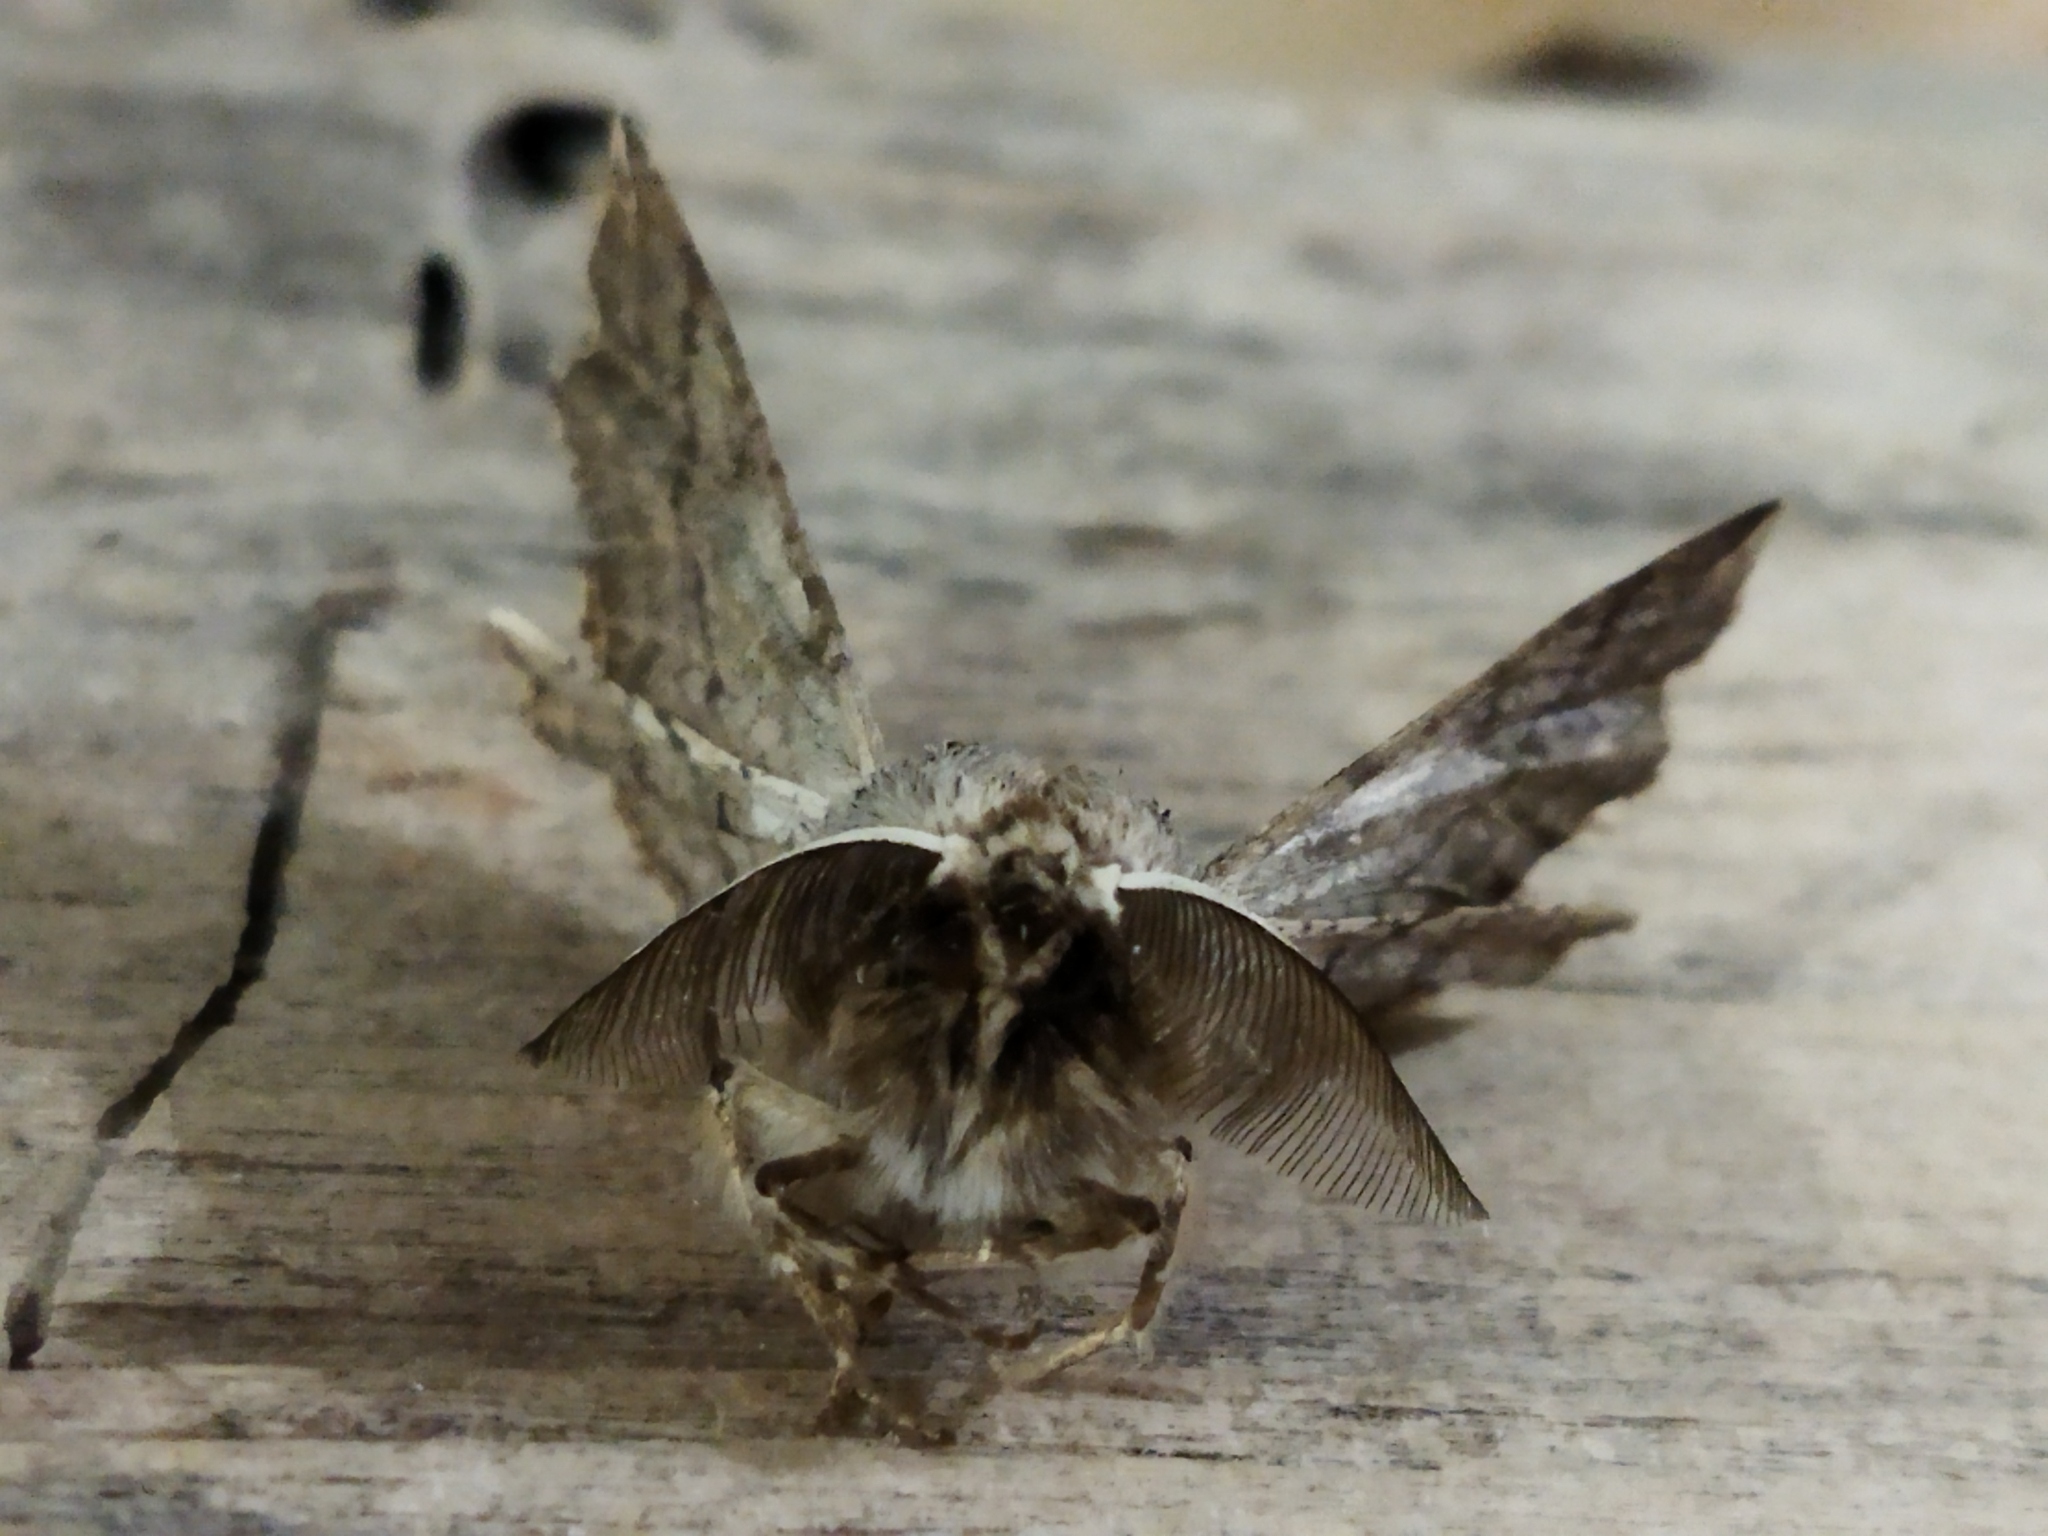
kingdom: Animalia
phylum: Arthropoda
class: Insecta
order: Lepidoptera
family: Geometridae
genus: Apochima
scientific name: Apochima flabellaria
